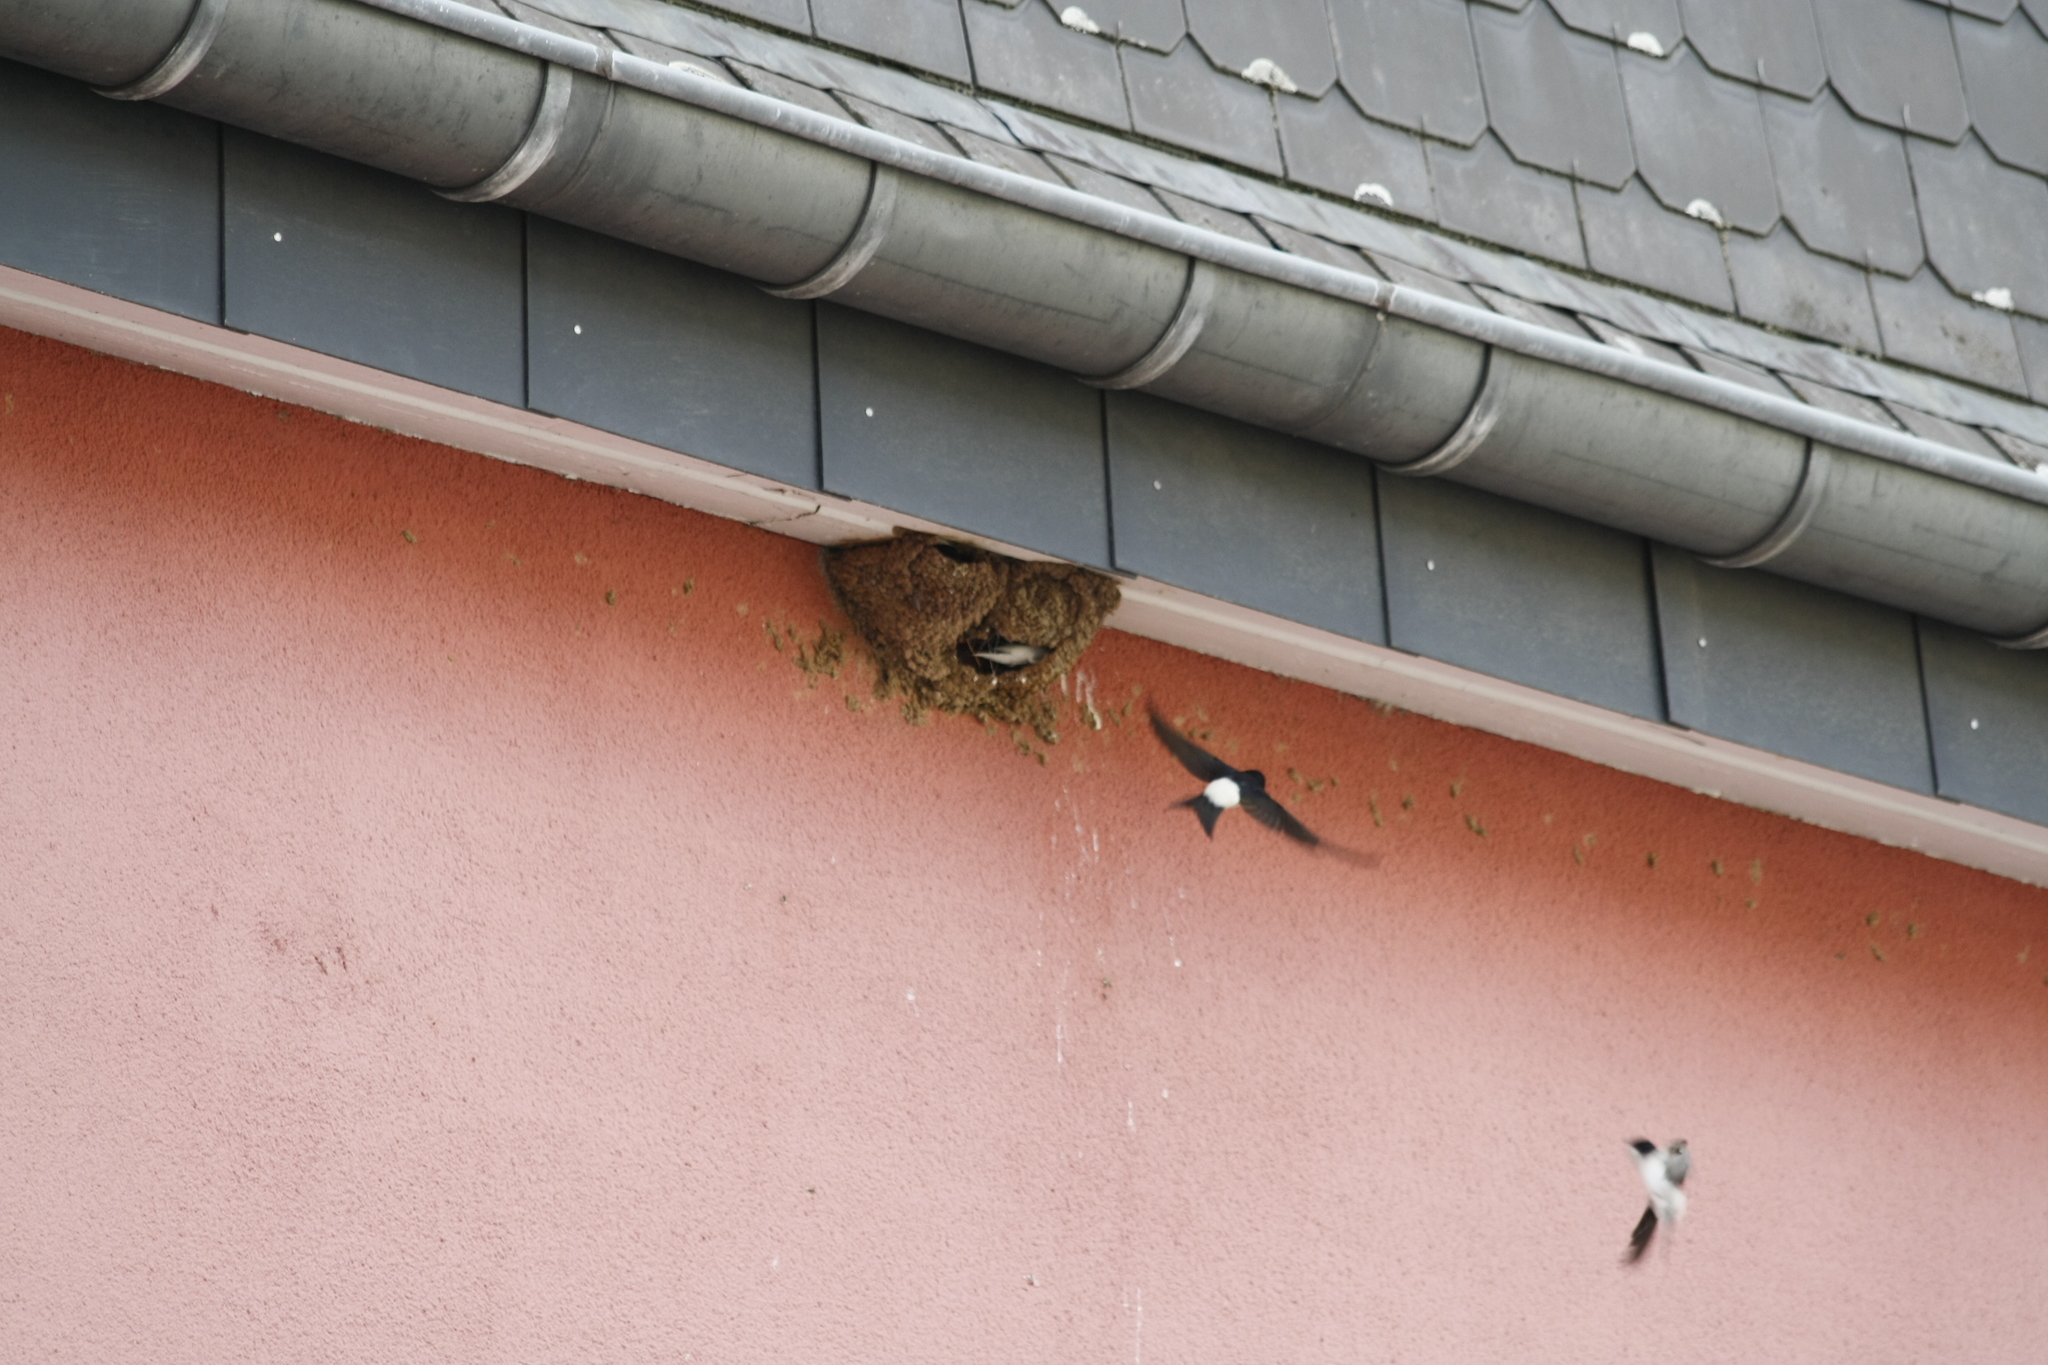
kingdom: Animalia
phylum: Chordata
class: Aves
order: Passeriformes
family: Hirundinidae
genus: Delichon
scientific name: Delichon urbicum
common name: Common house martin
